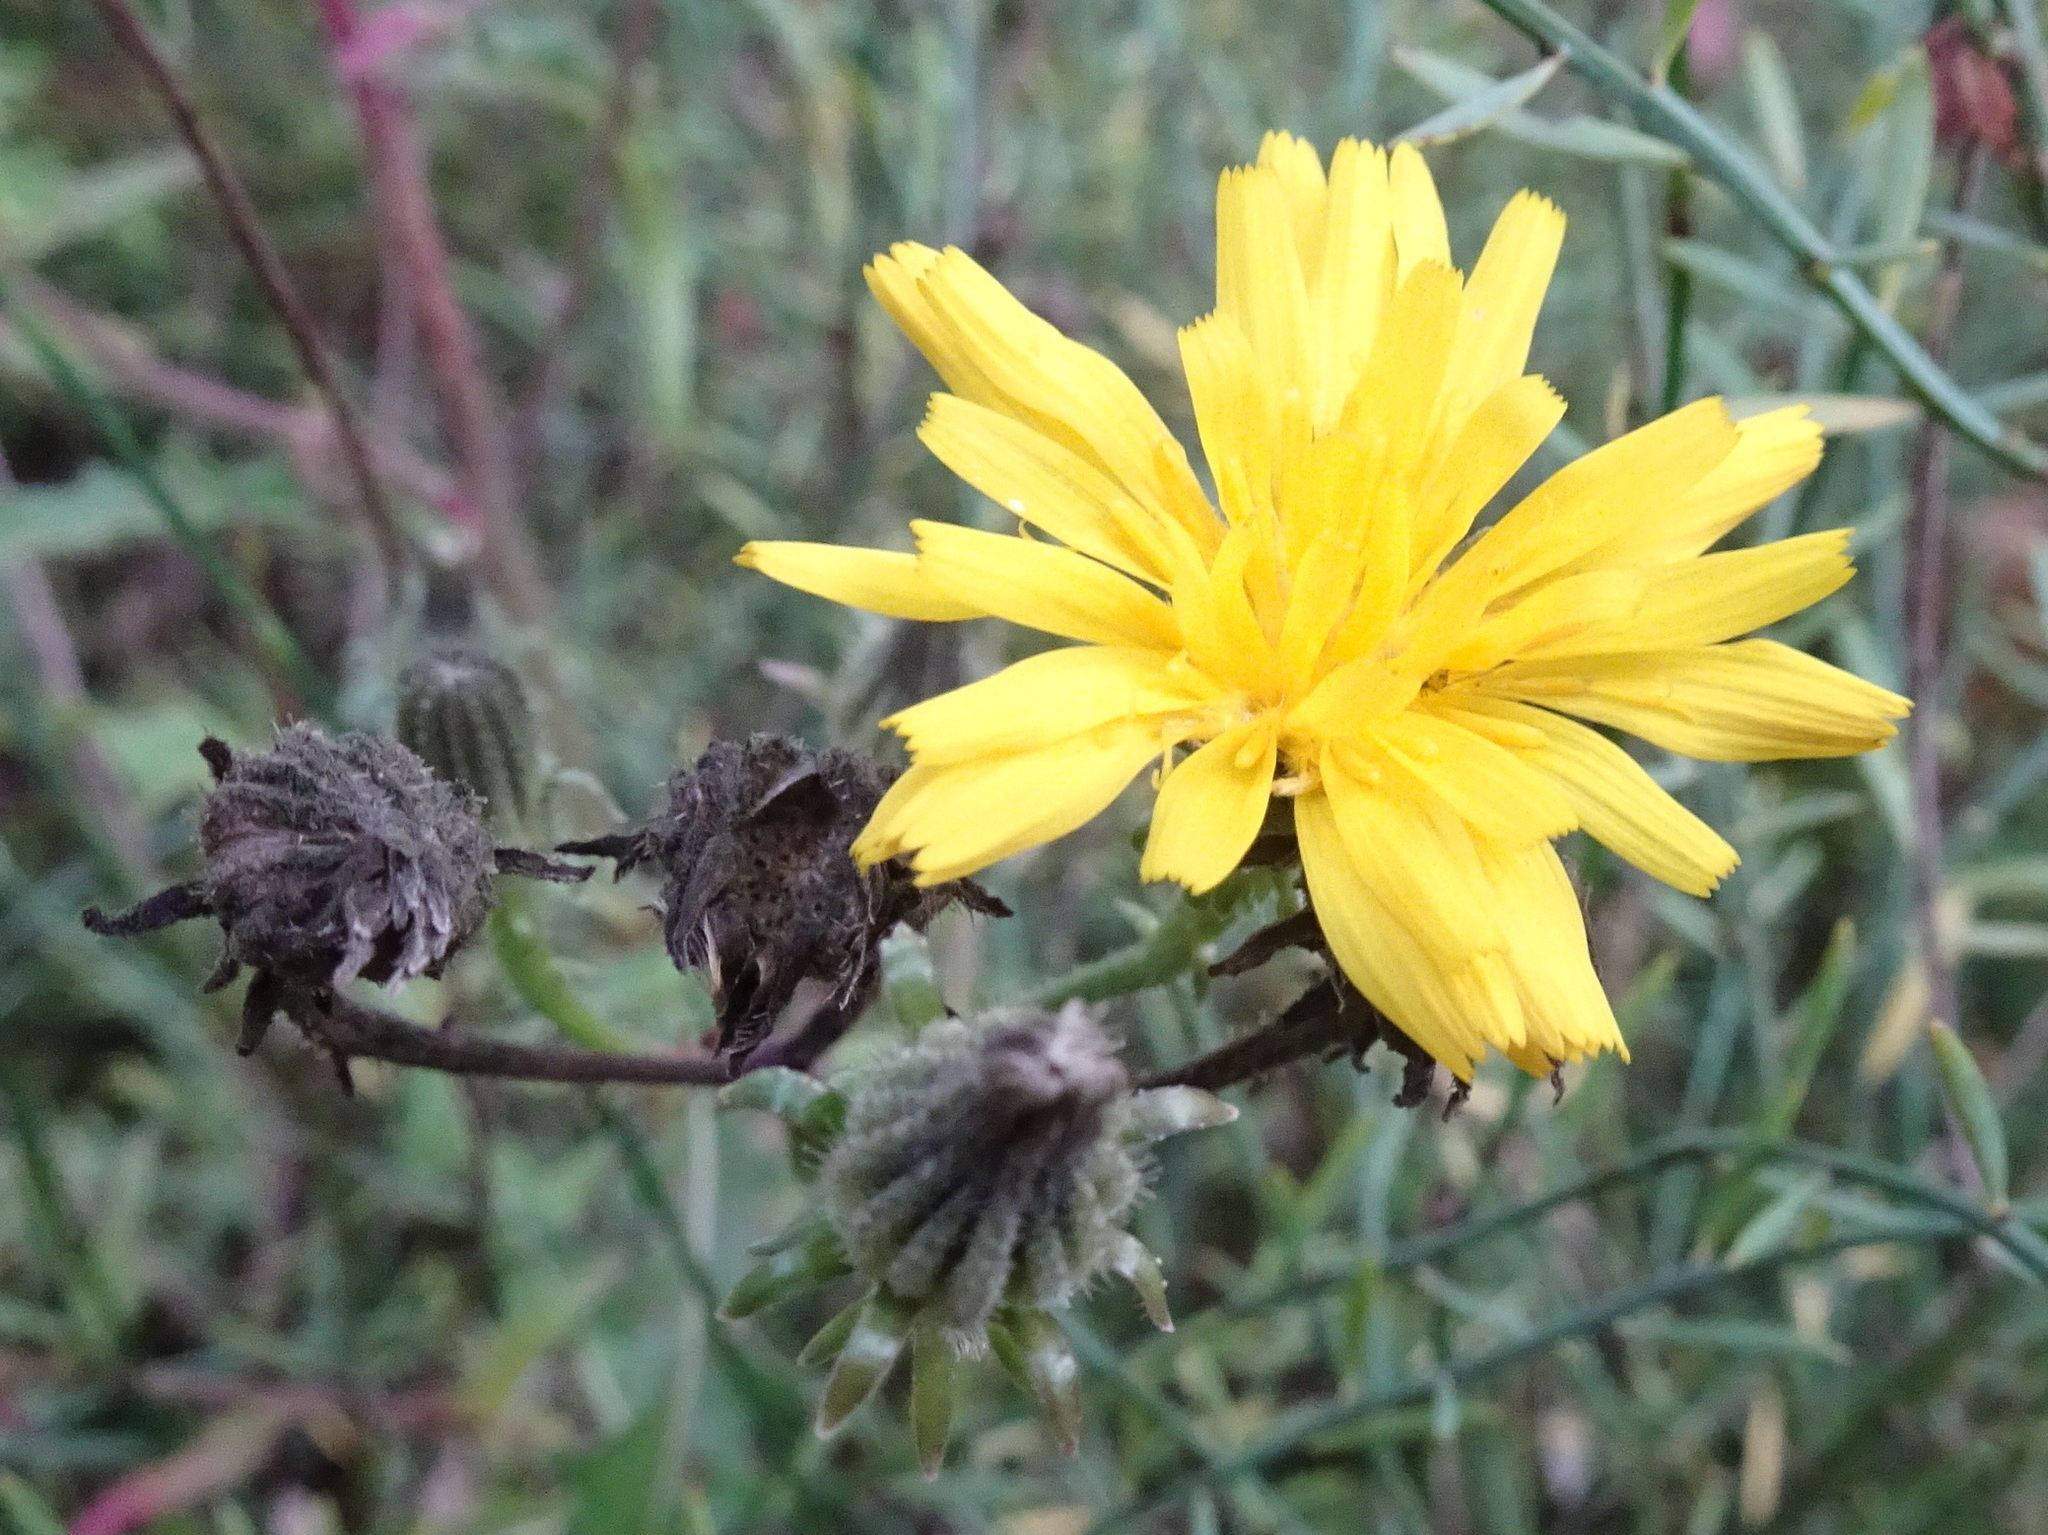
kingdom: Plantae
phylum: Tracheophyta
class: Magnoliopsida
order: Asterales
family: Asteraceae
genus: Picris
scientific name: Picris hieracioides
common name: Hawkweed oxtongue
